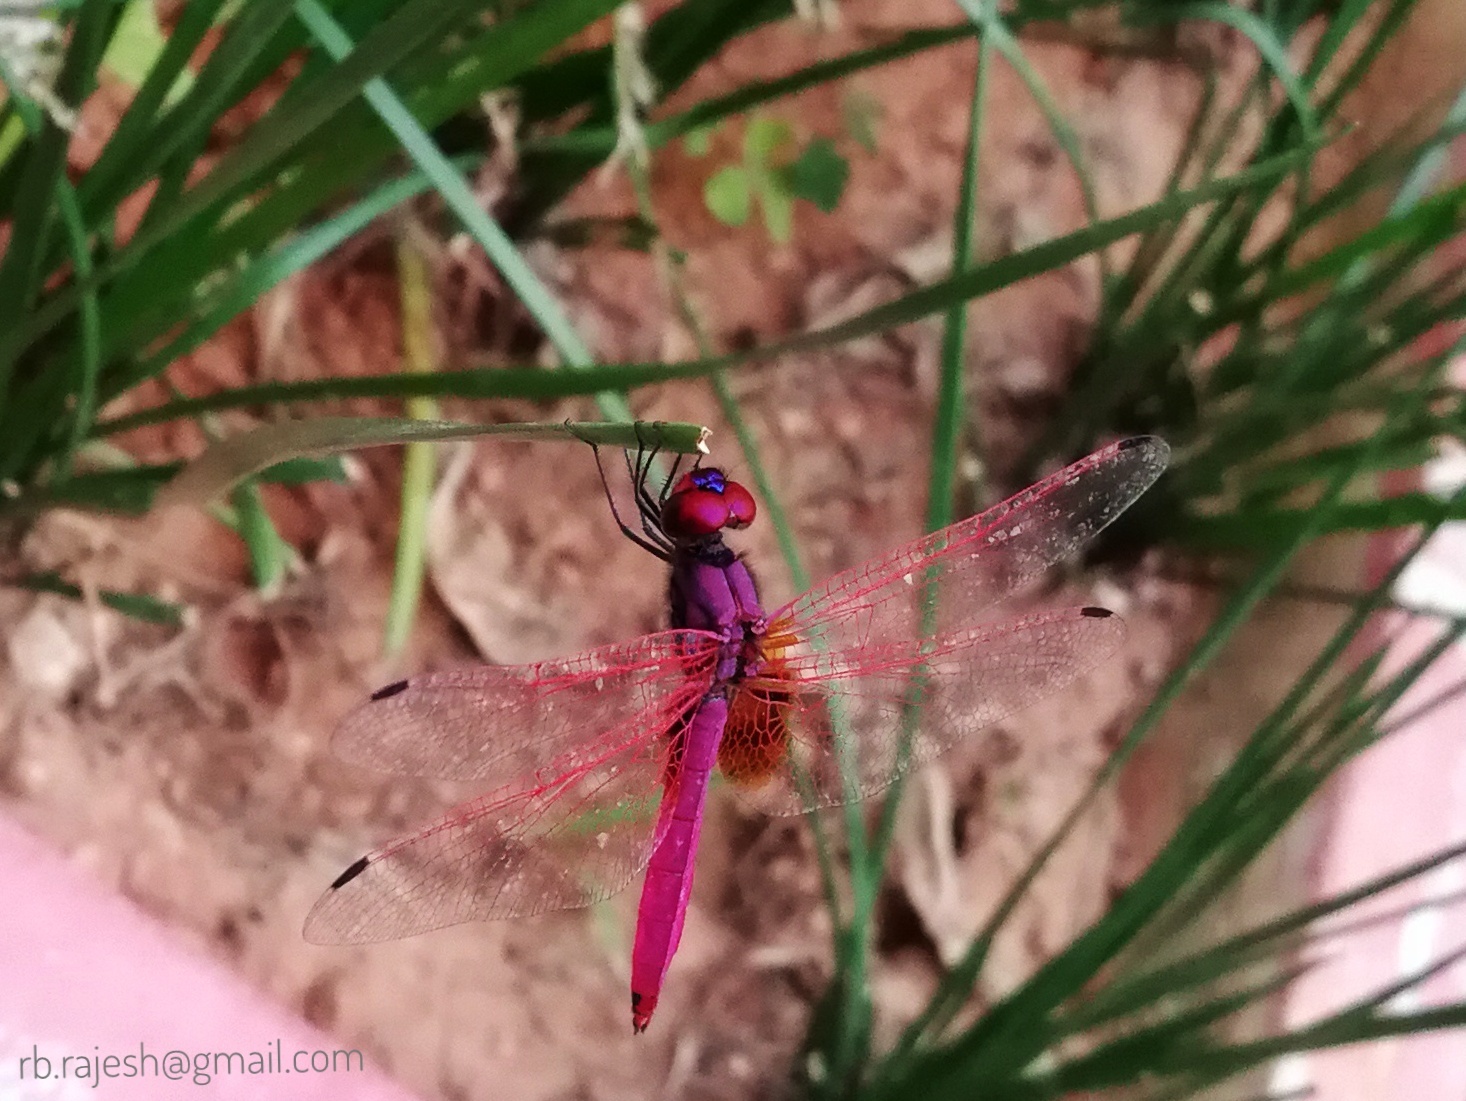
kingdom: Animalia
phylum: Arthropoda
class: Insecta
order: Odonata
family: Libellulidae
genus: Trithemis
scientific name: Trithemis aurora
